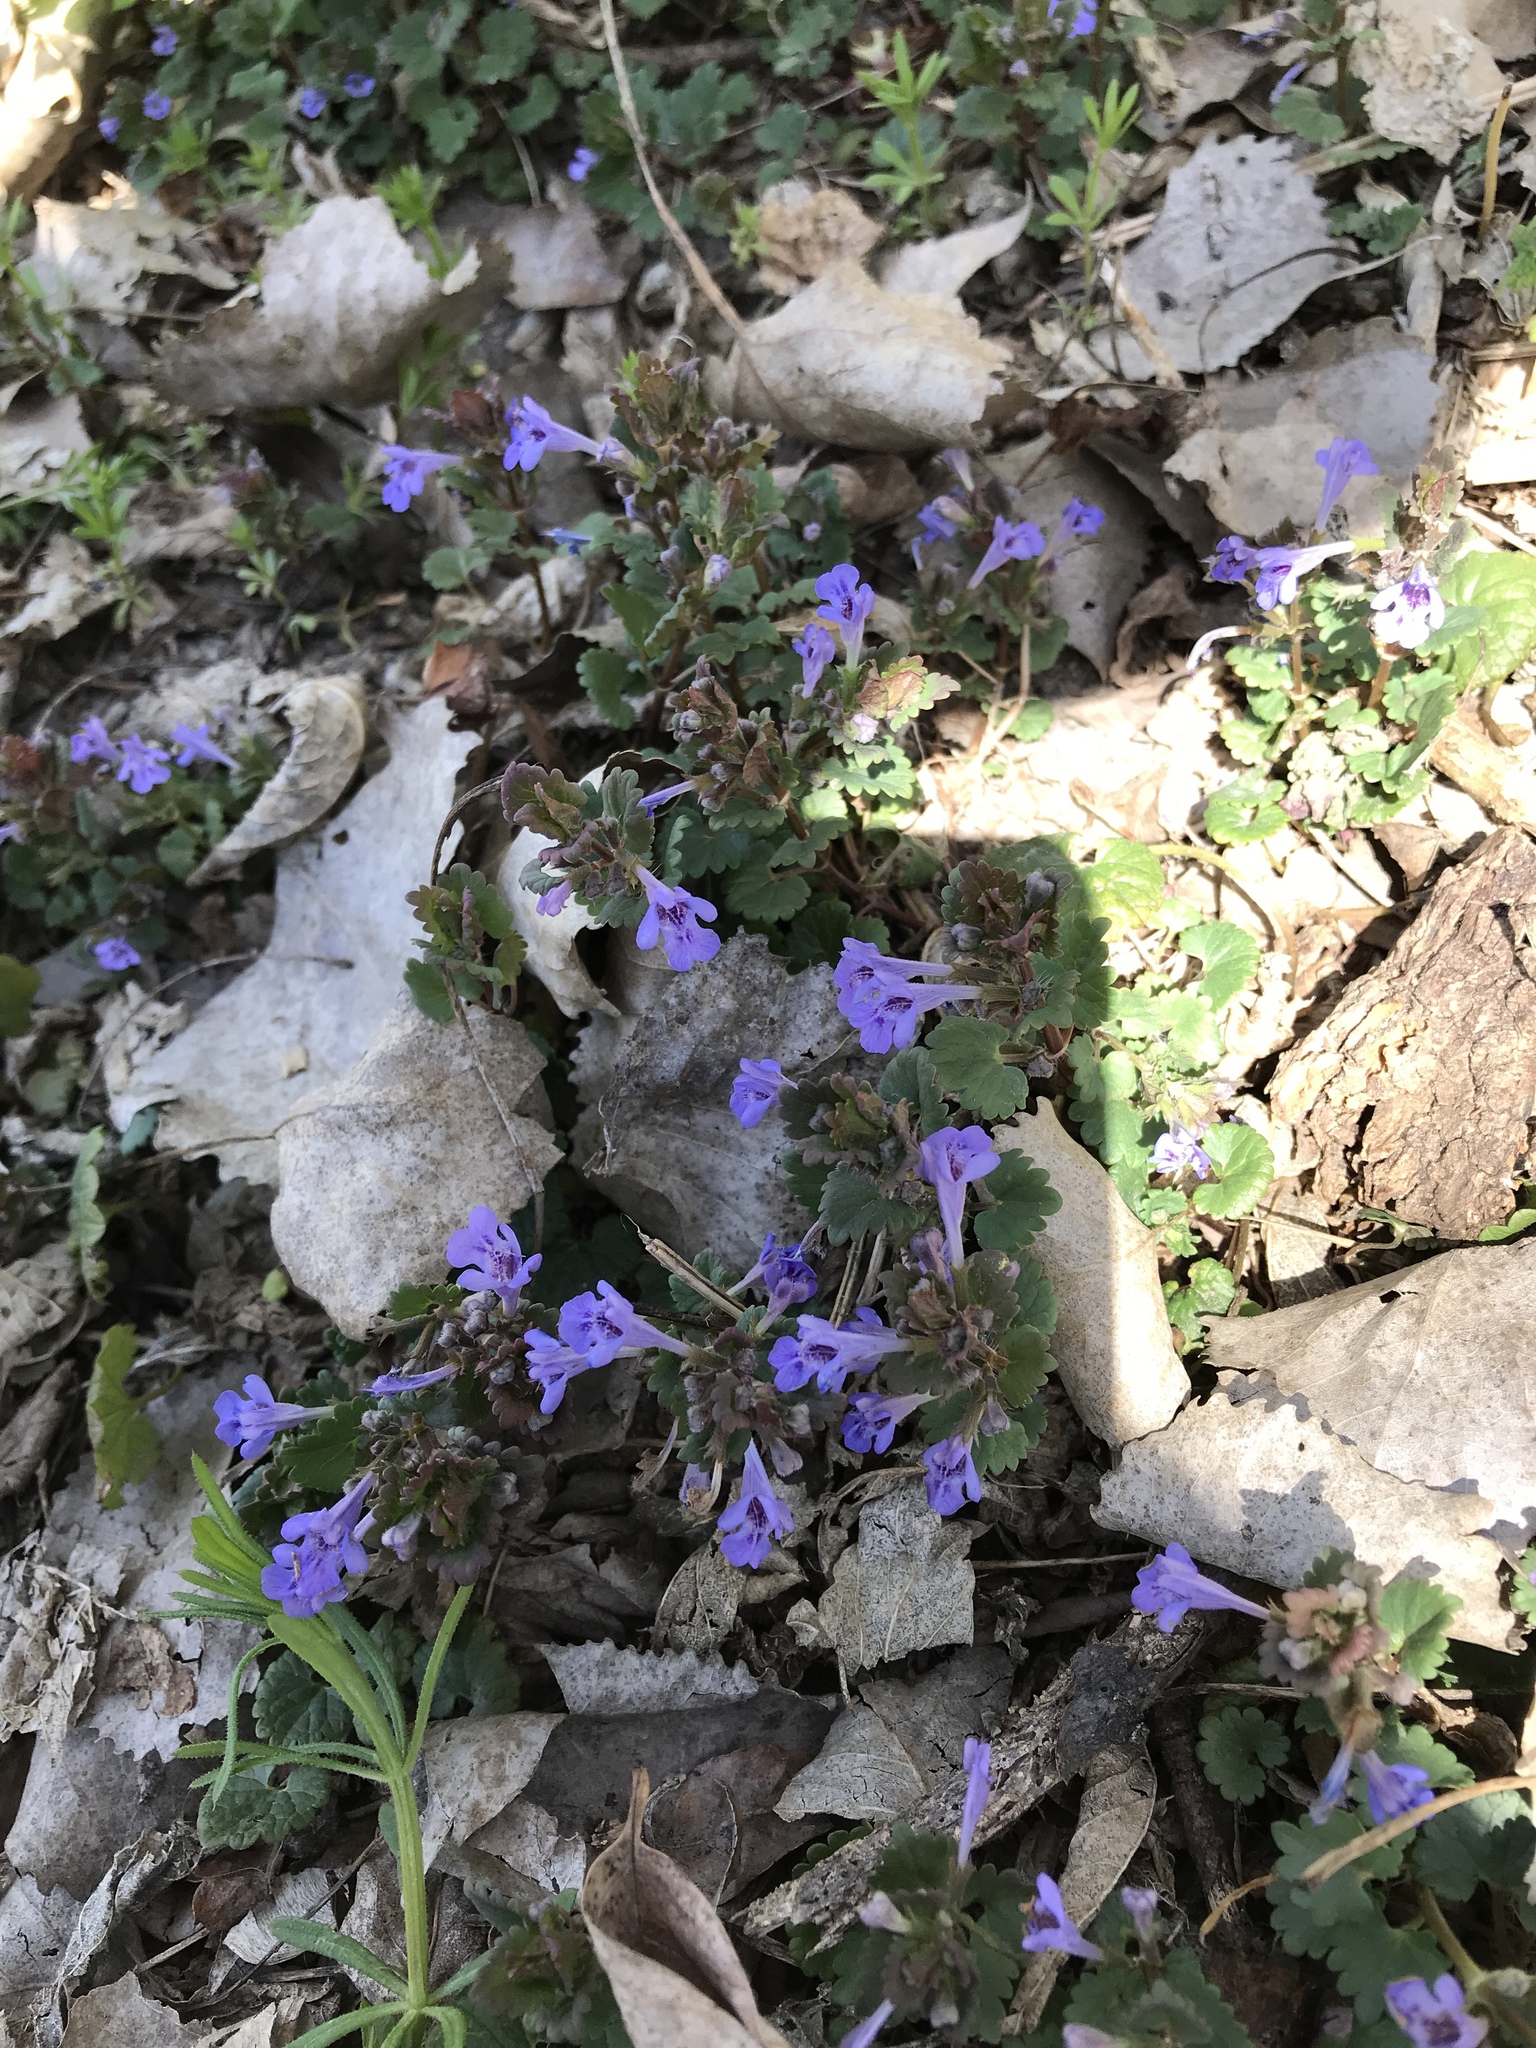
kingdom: Plantae
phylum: Tracheophyta
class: Magnoliopsida
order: Lamiales
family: Lamiaceae
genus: Glechoma
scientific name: Glechoma hederacea
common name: Ground ivy
